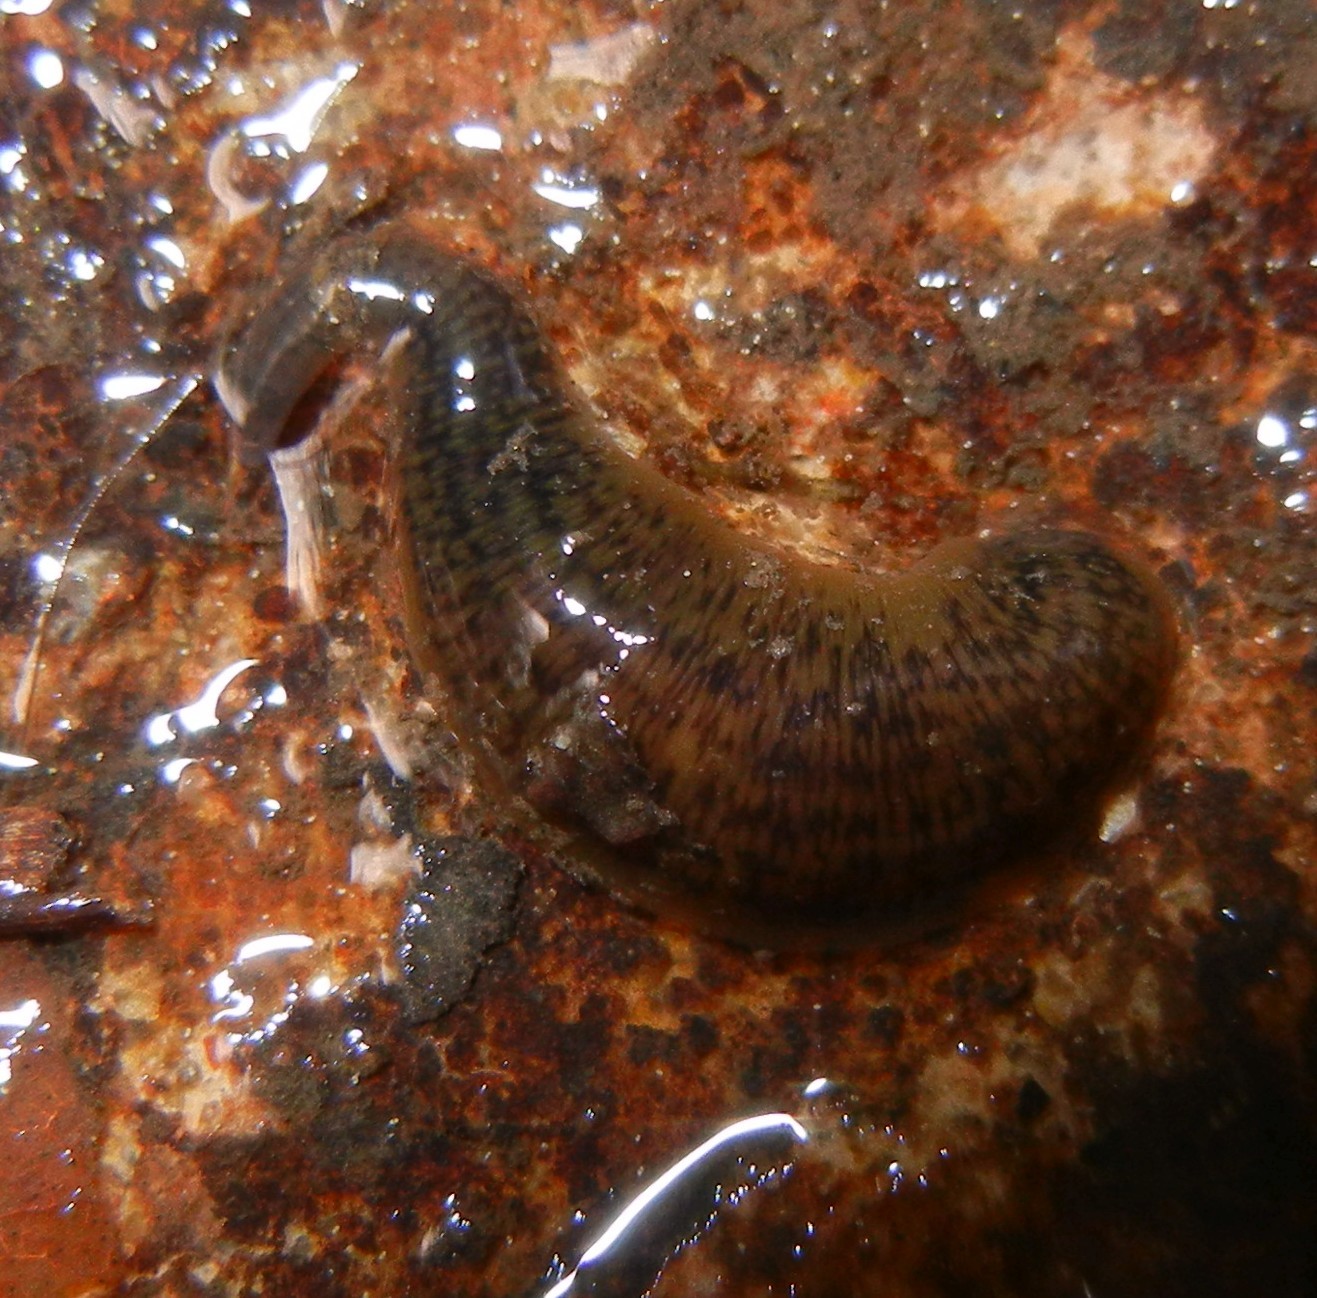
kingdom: Animalia
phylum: Annelida
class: Clitellata
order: Arhynchobdellida
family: Erpobdellidae
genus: Erpobdella
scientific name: Erpobdella octoculata
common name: Leeches
